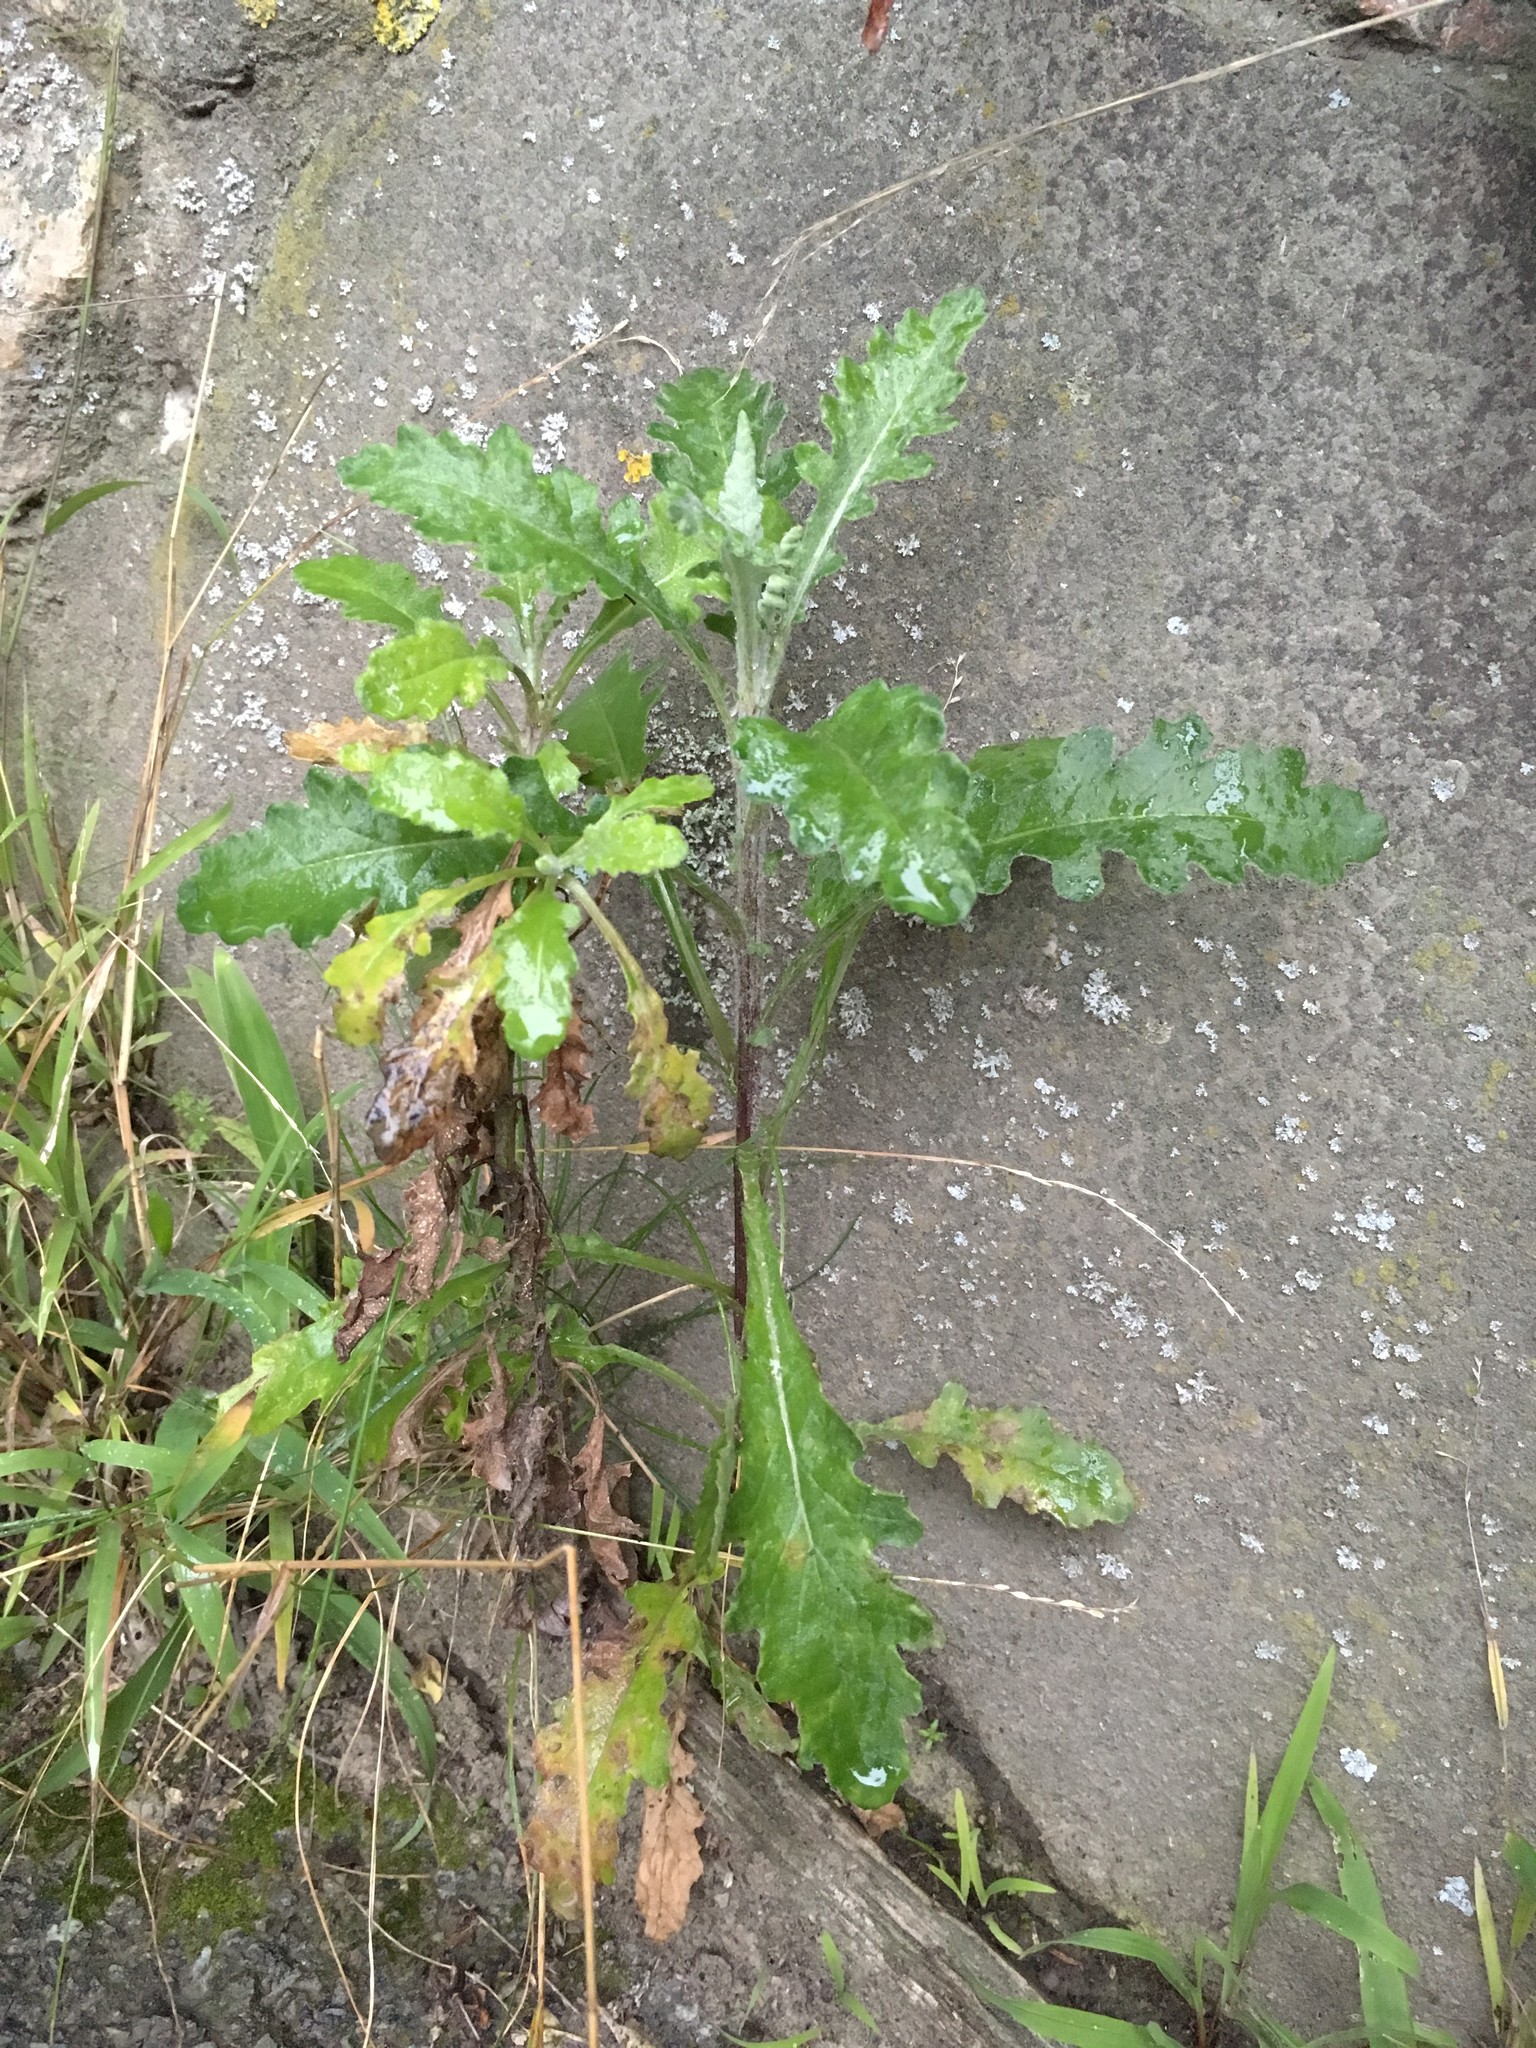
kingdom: Plantae
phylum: Tracheophyta
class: Magnoliopsida
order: Asterales
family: Asteraceae
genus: Senecio
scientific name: Senecio glomeratus
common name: Cutleaf burnweed
